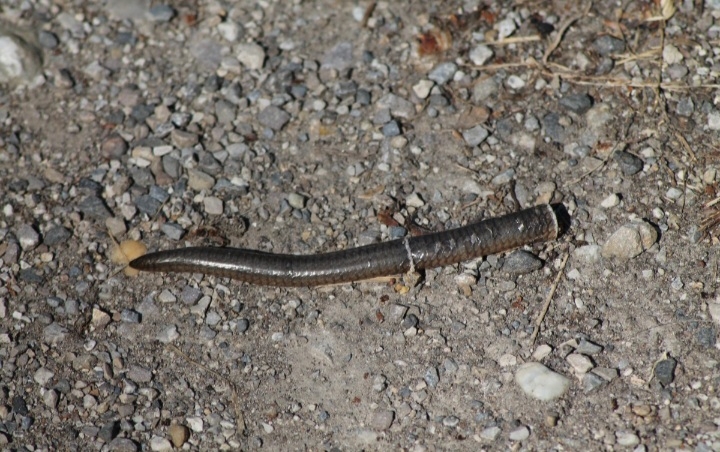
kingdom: Animalia
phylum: Chordata
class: Squamata
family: Anguidae
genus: Anguis
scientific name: Anguis fragilis
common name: Slow worm
